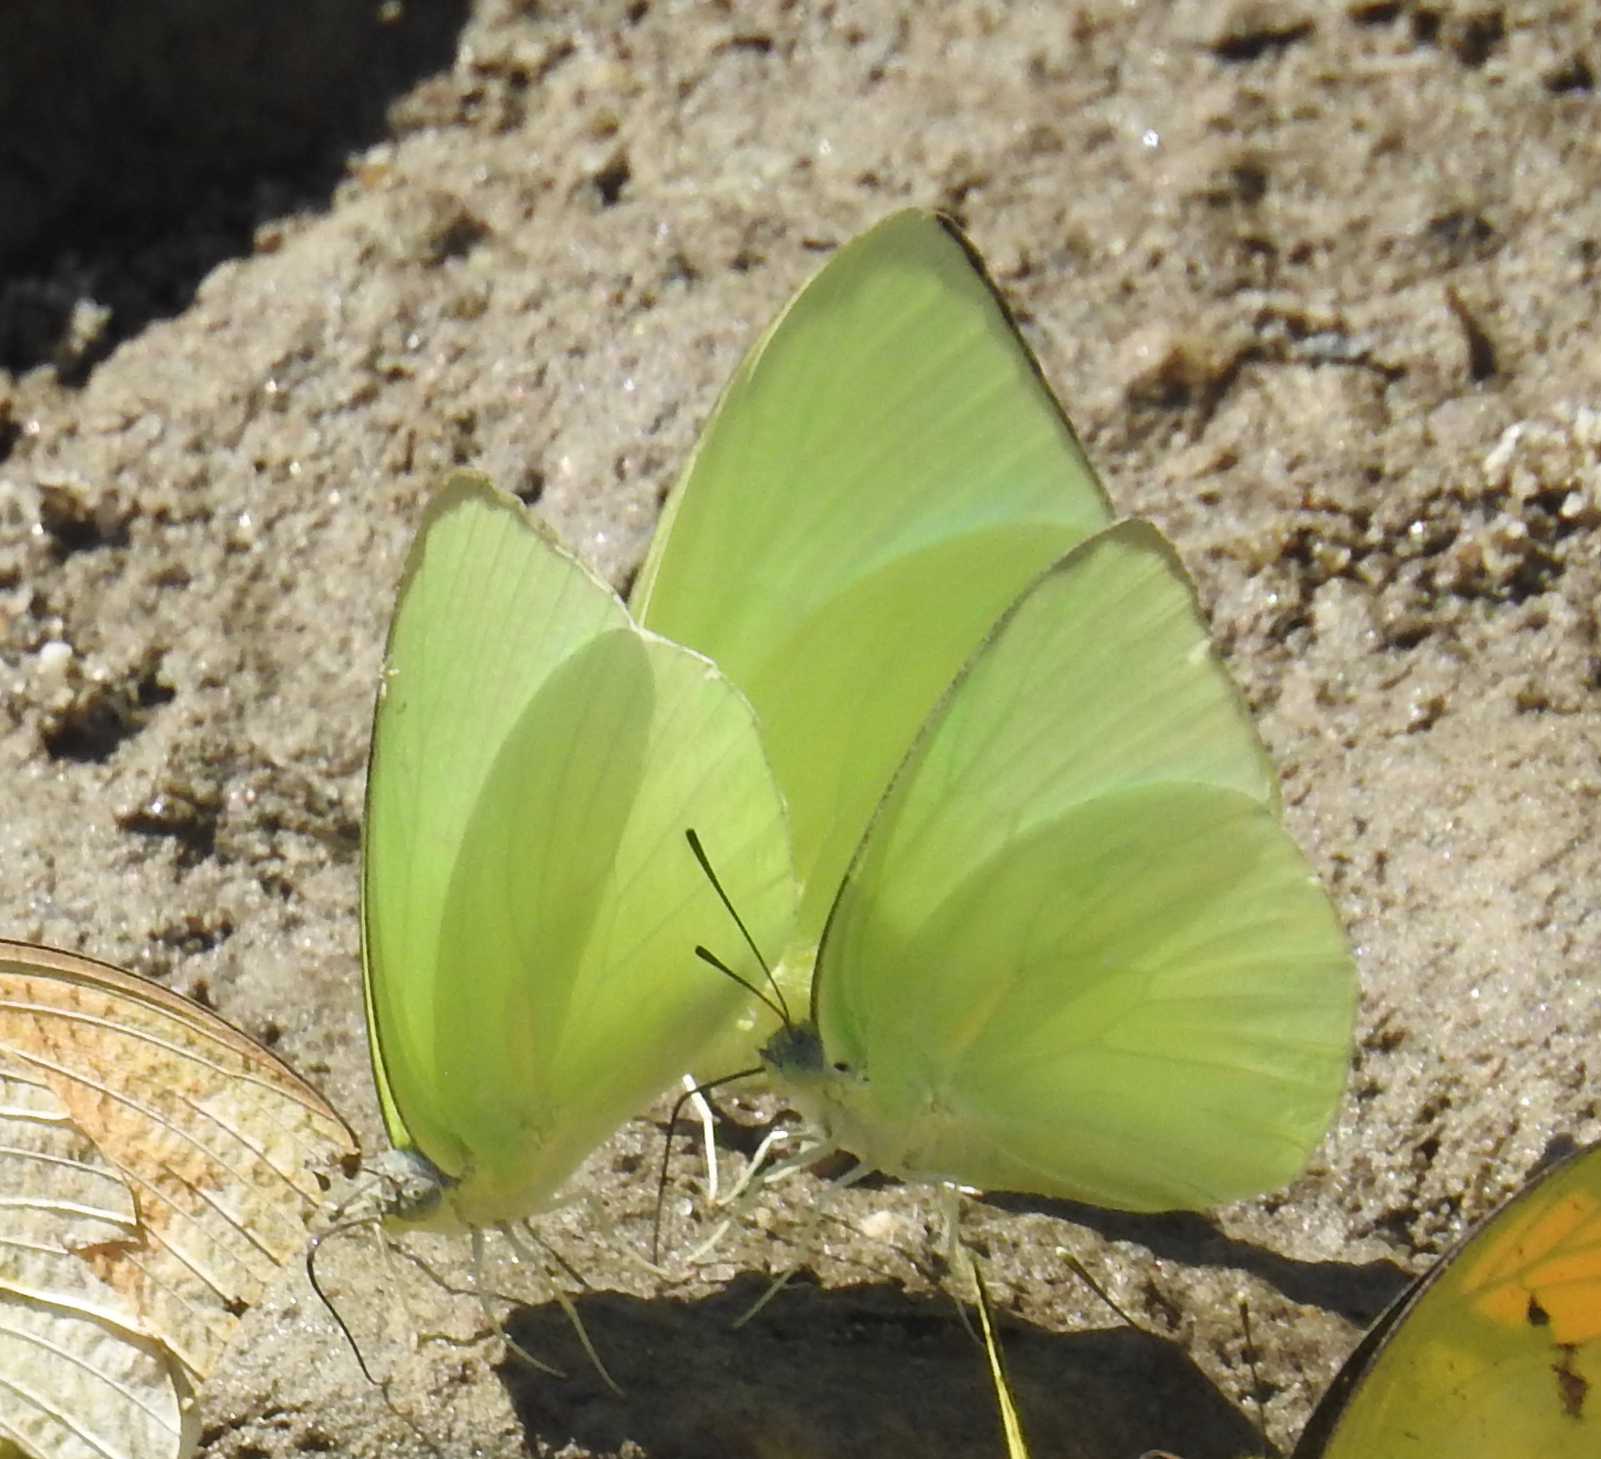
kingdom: Animalia
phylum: Arthropoda
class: Insecta
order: Lepidoptera
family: Pieridae
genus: Catopsilia
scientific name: Catopsilia pomona
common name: Common emigrant
